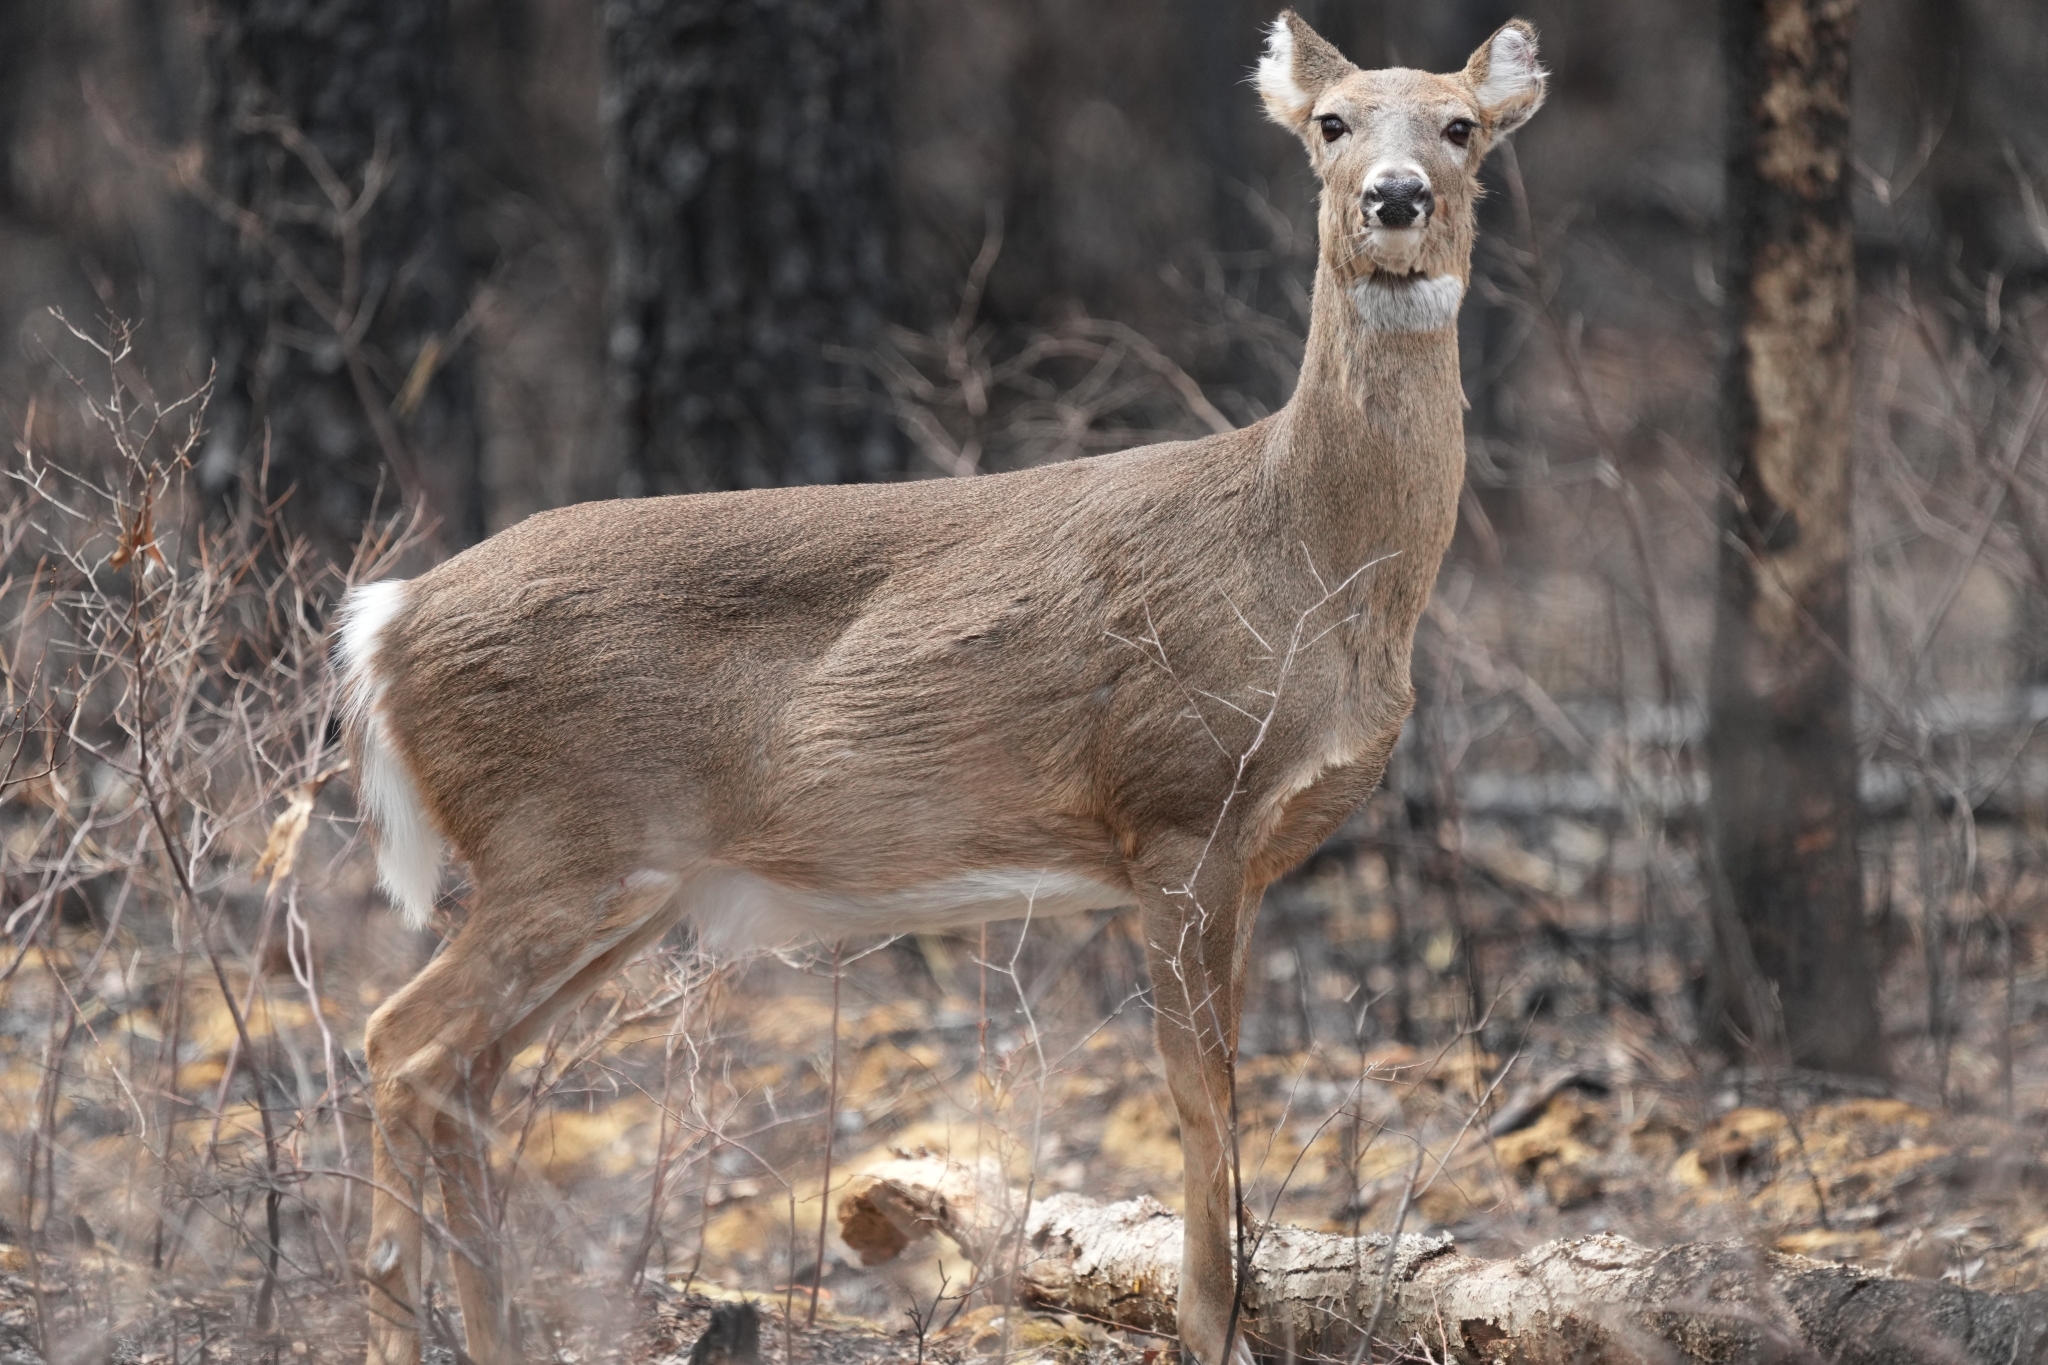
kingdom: Animalia
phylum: Chordata
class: Mammalia
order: Artiodactyla
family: Cervidae
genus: Odocoileus
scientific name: Odocoileus virginianus
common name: White-tailed deer
